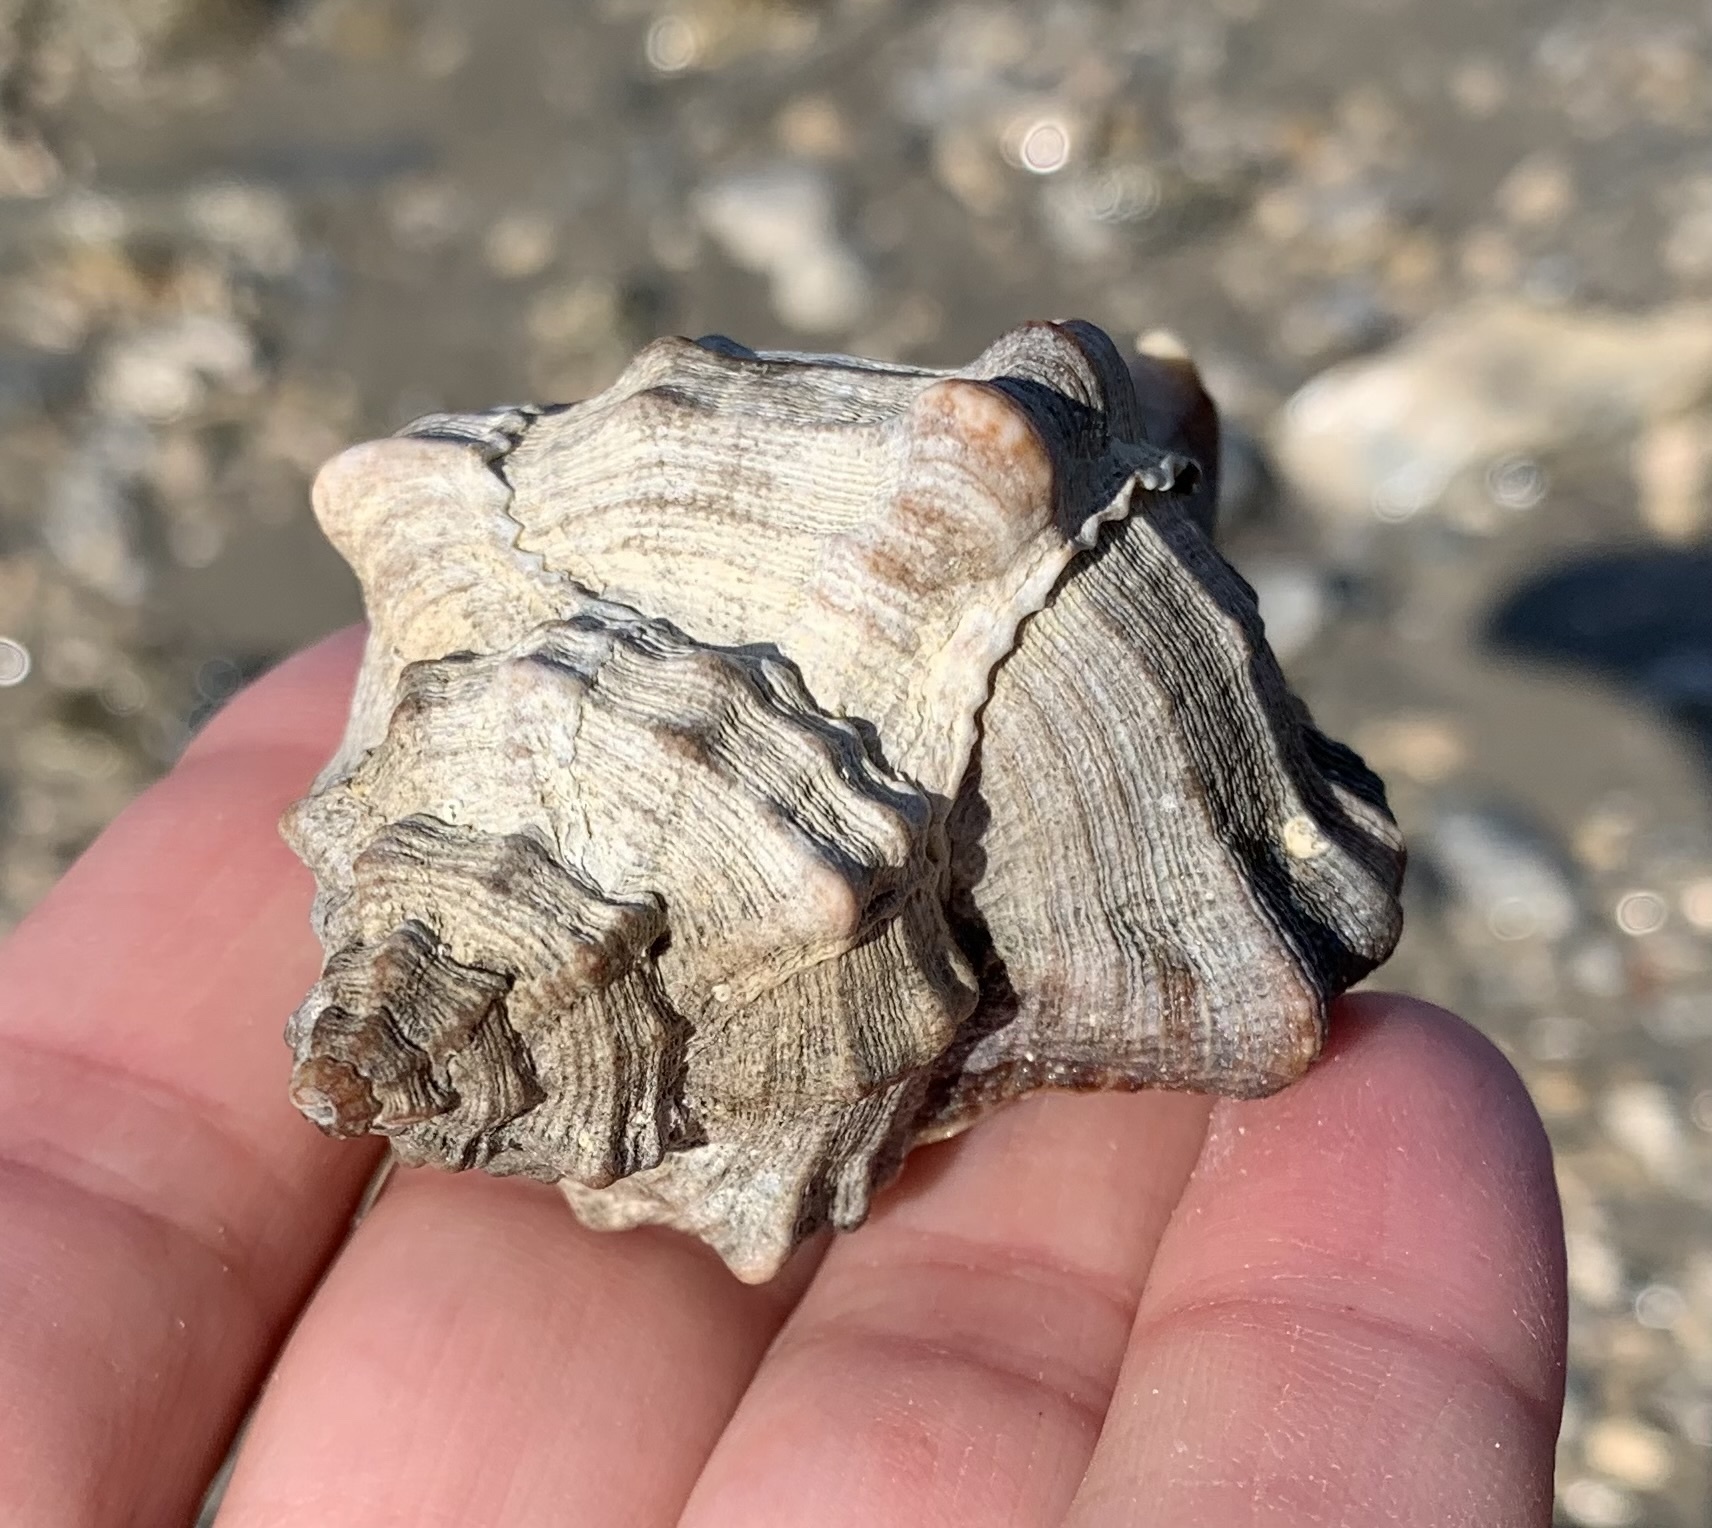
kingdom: Animalia
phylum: Mollusca
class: Gastropoda
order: Neogastropoda
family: Muricidae
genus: Hexaplex
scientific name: Hexaplex trunculus
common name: Banded dye-murex
